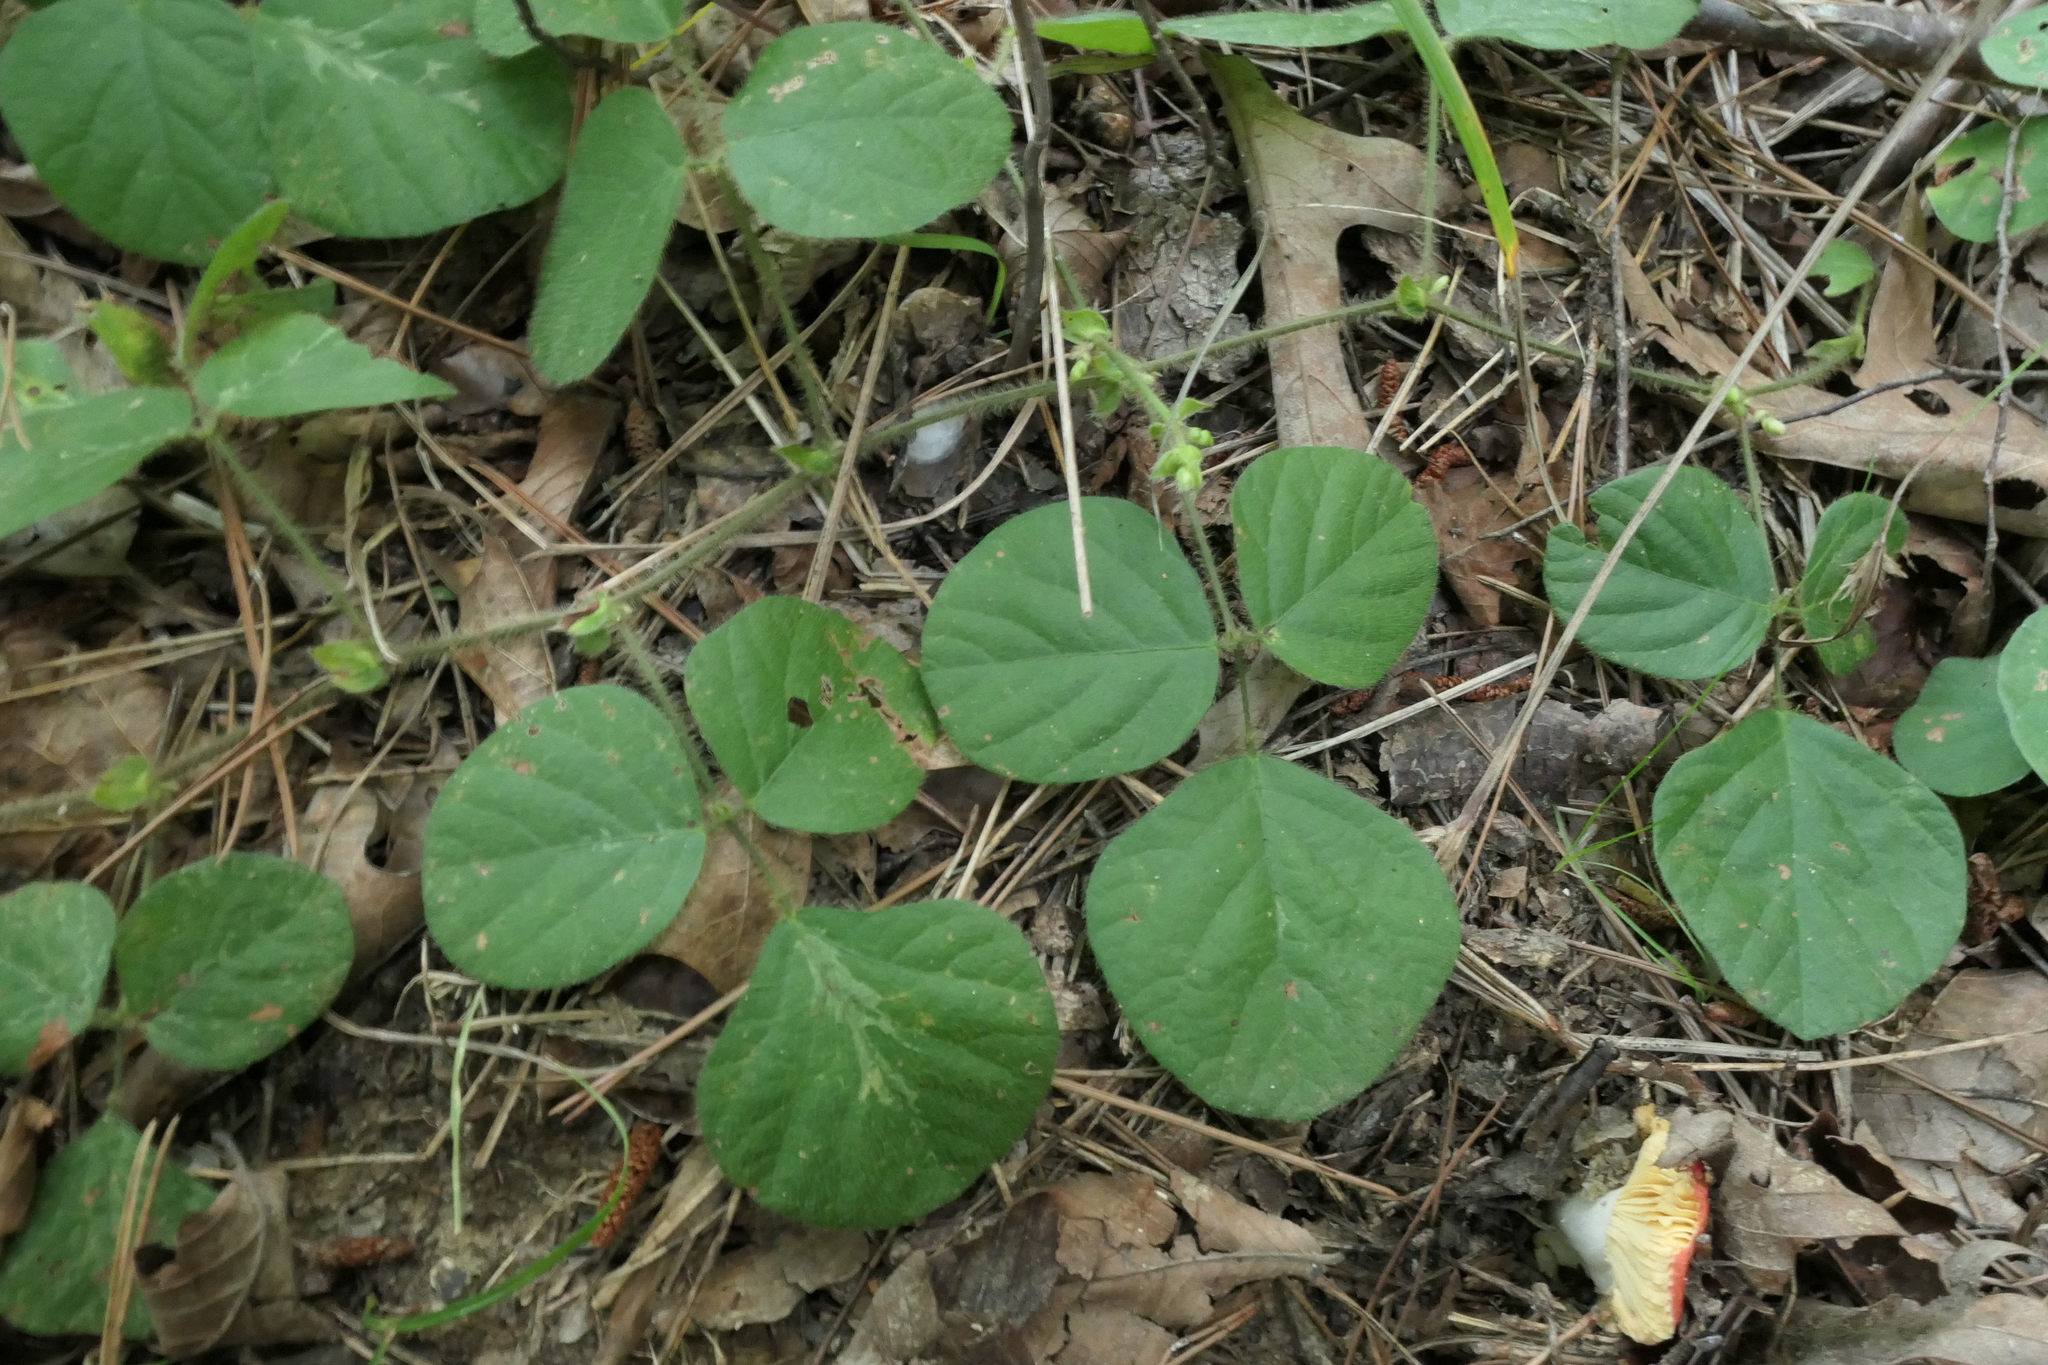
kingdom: Plantae
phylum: Tracheophyta
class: Magnoliopsida
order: Fabales
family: Fabaceae
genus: Desmodium
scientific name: Desmodium rotundifolium
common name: Dollarleaf
